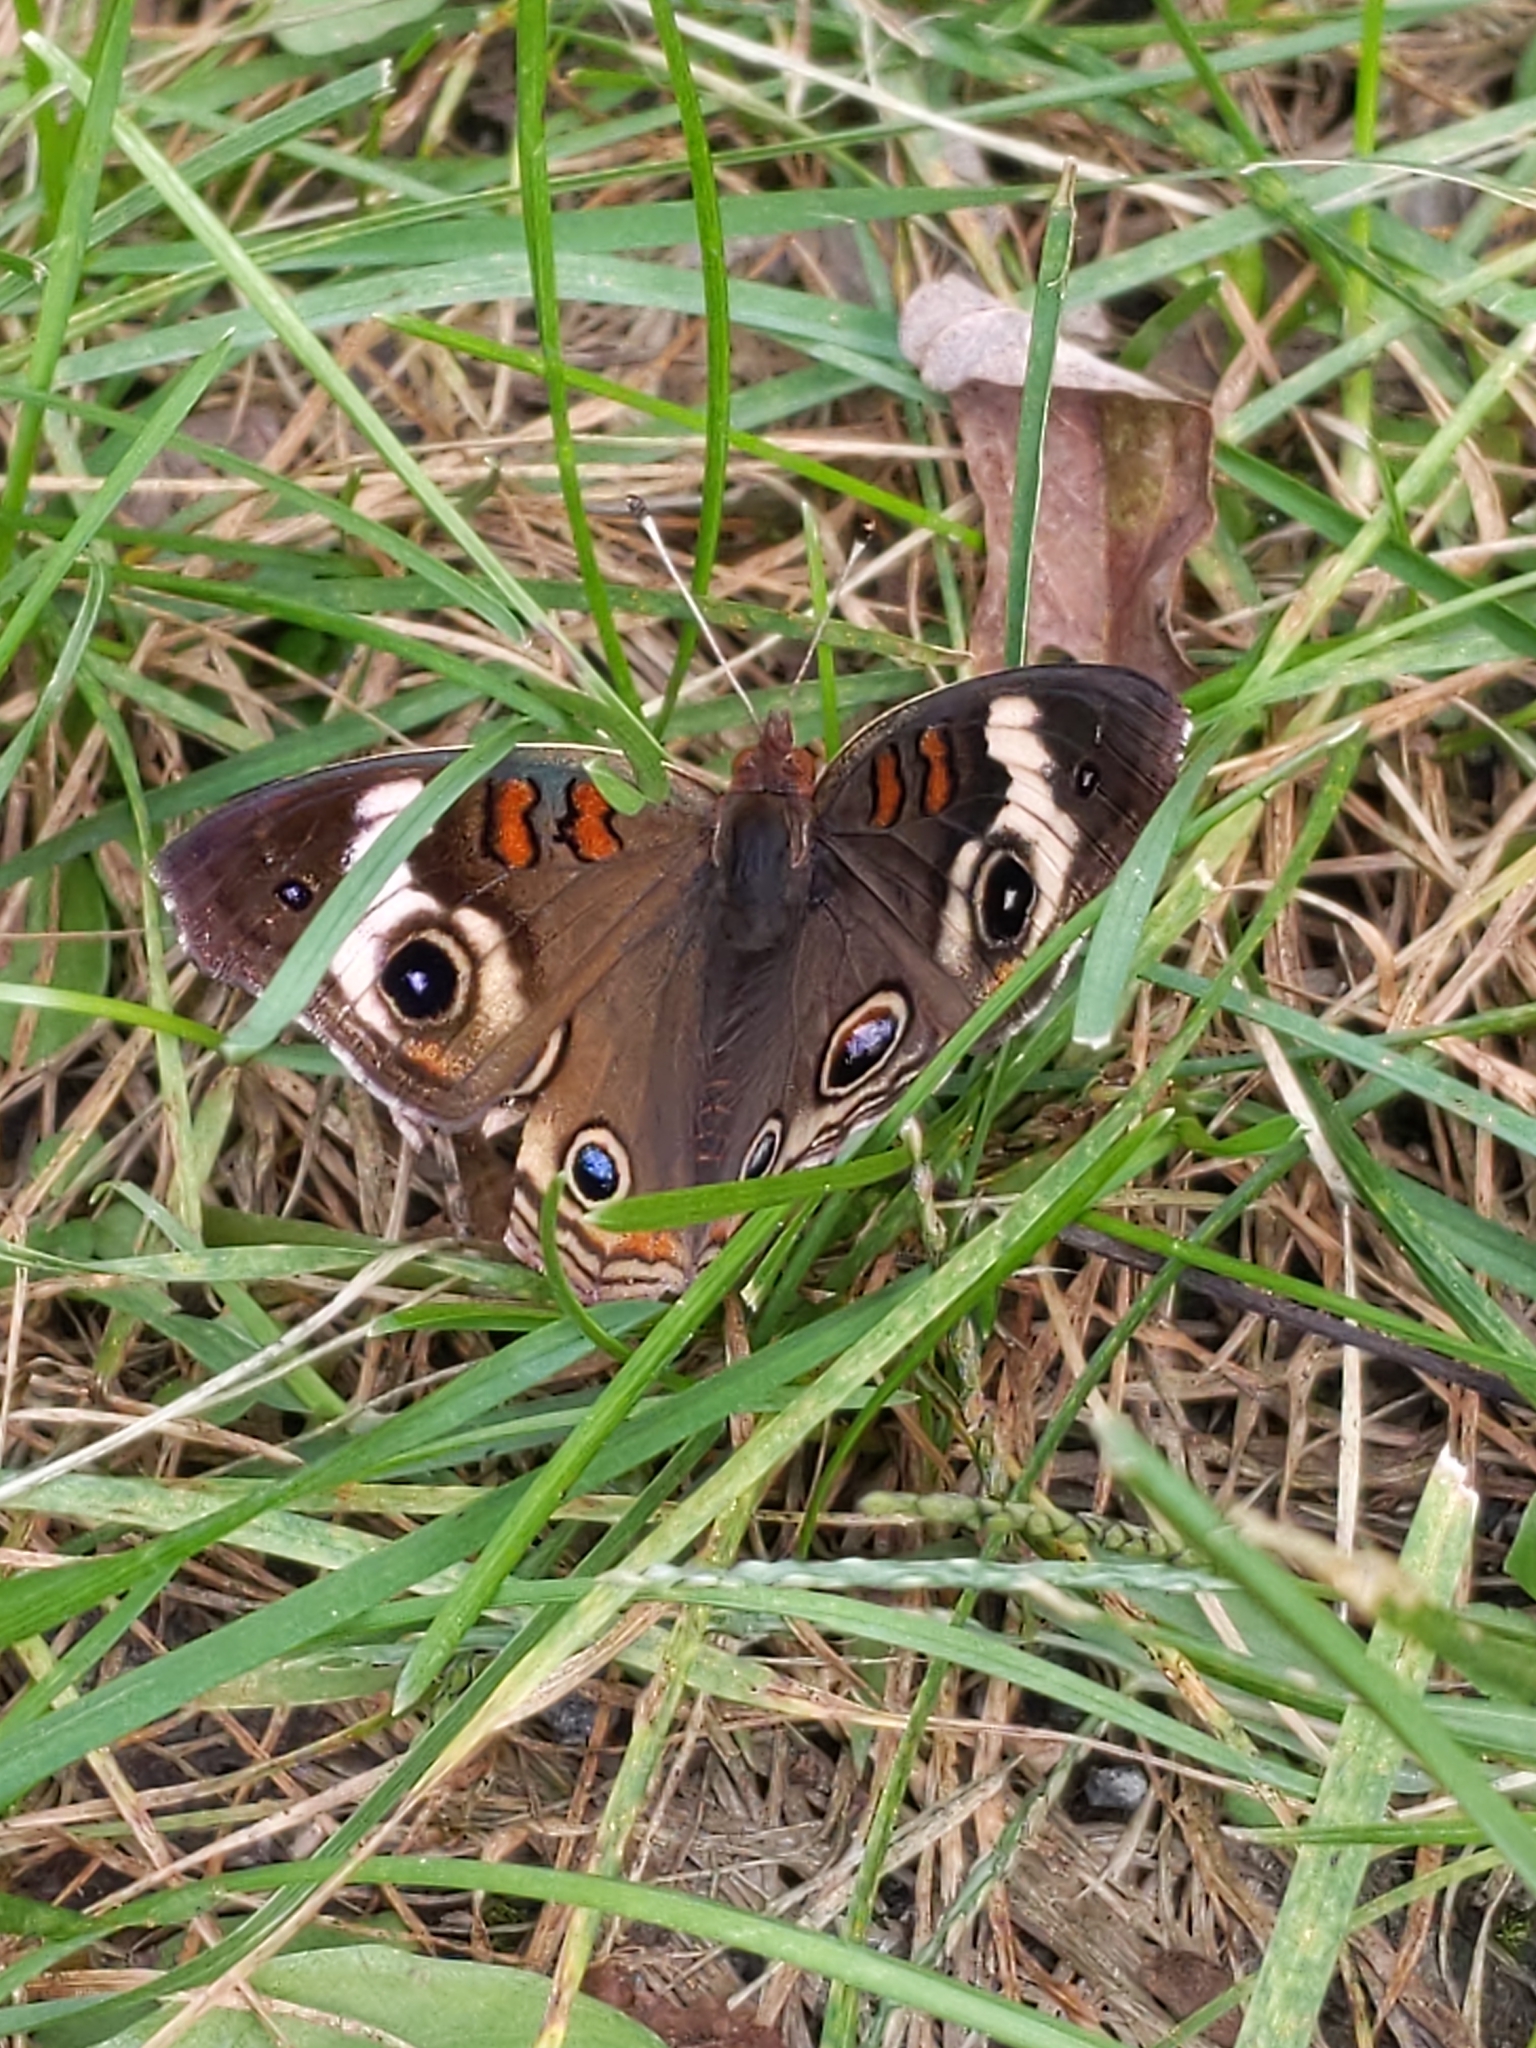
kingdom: Animalia
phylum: Arthropoda
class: Insecta
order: Lepidoptera
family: Nymphalidae
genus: Junonia
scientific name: Junonia coenia
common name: Common buckeye
